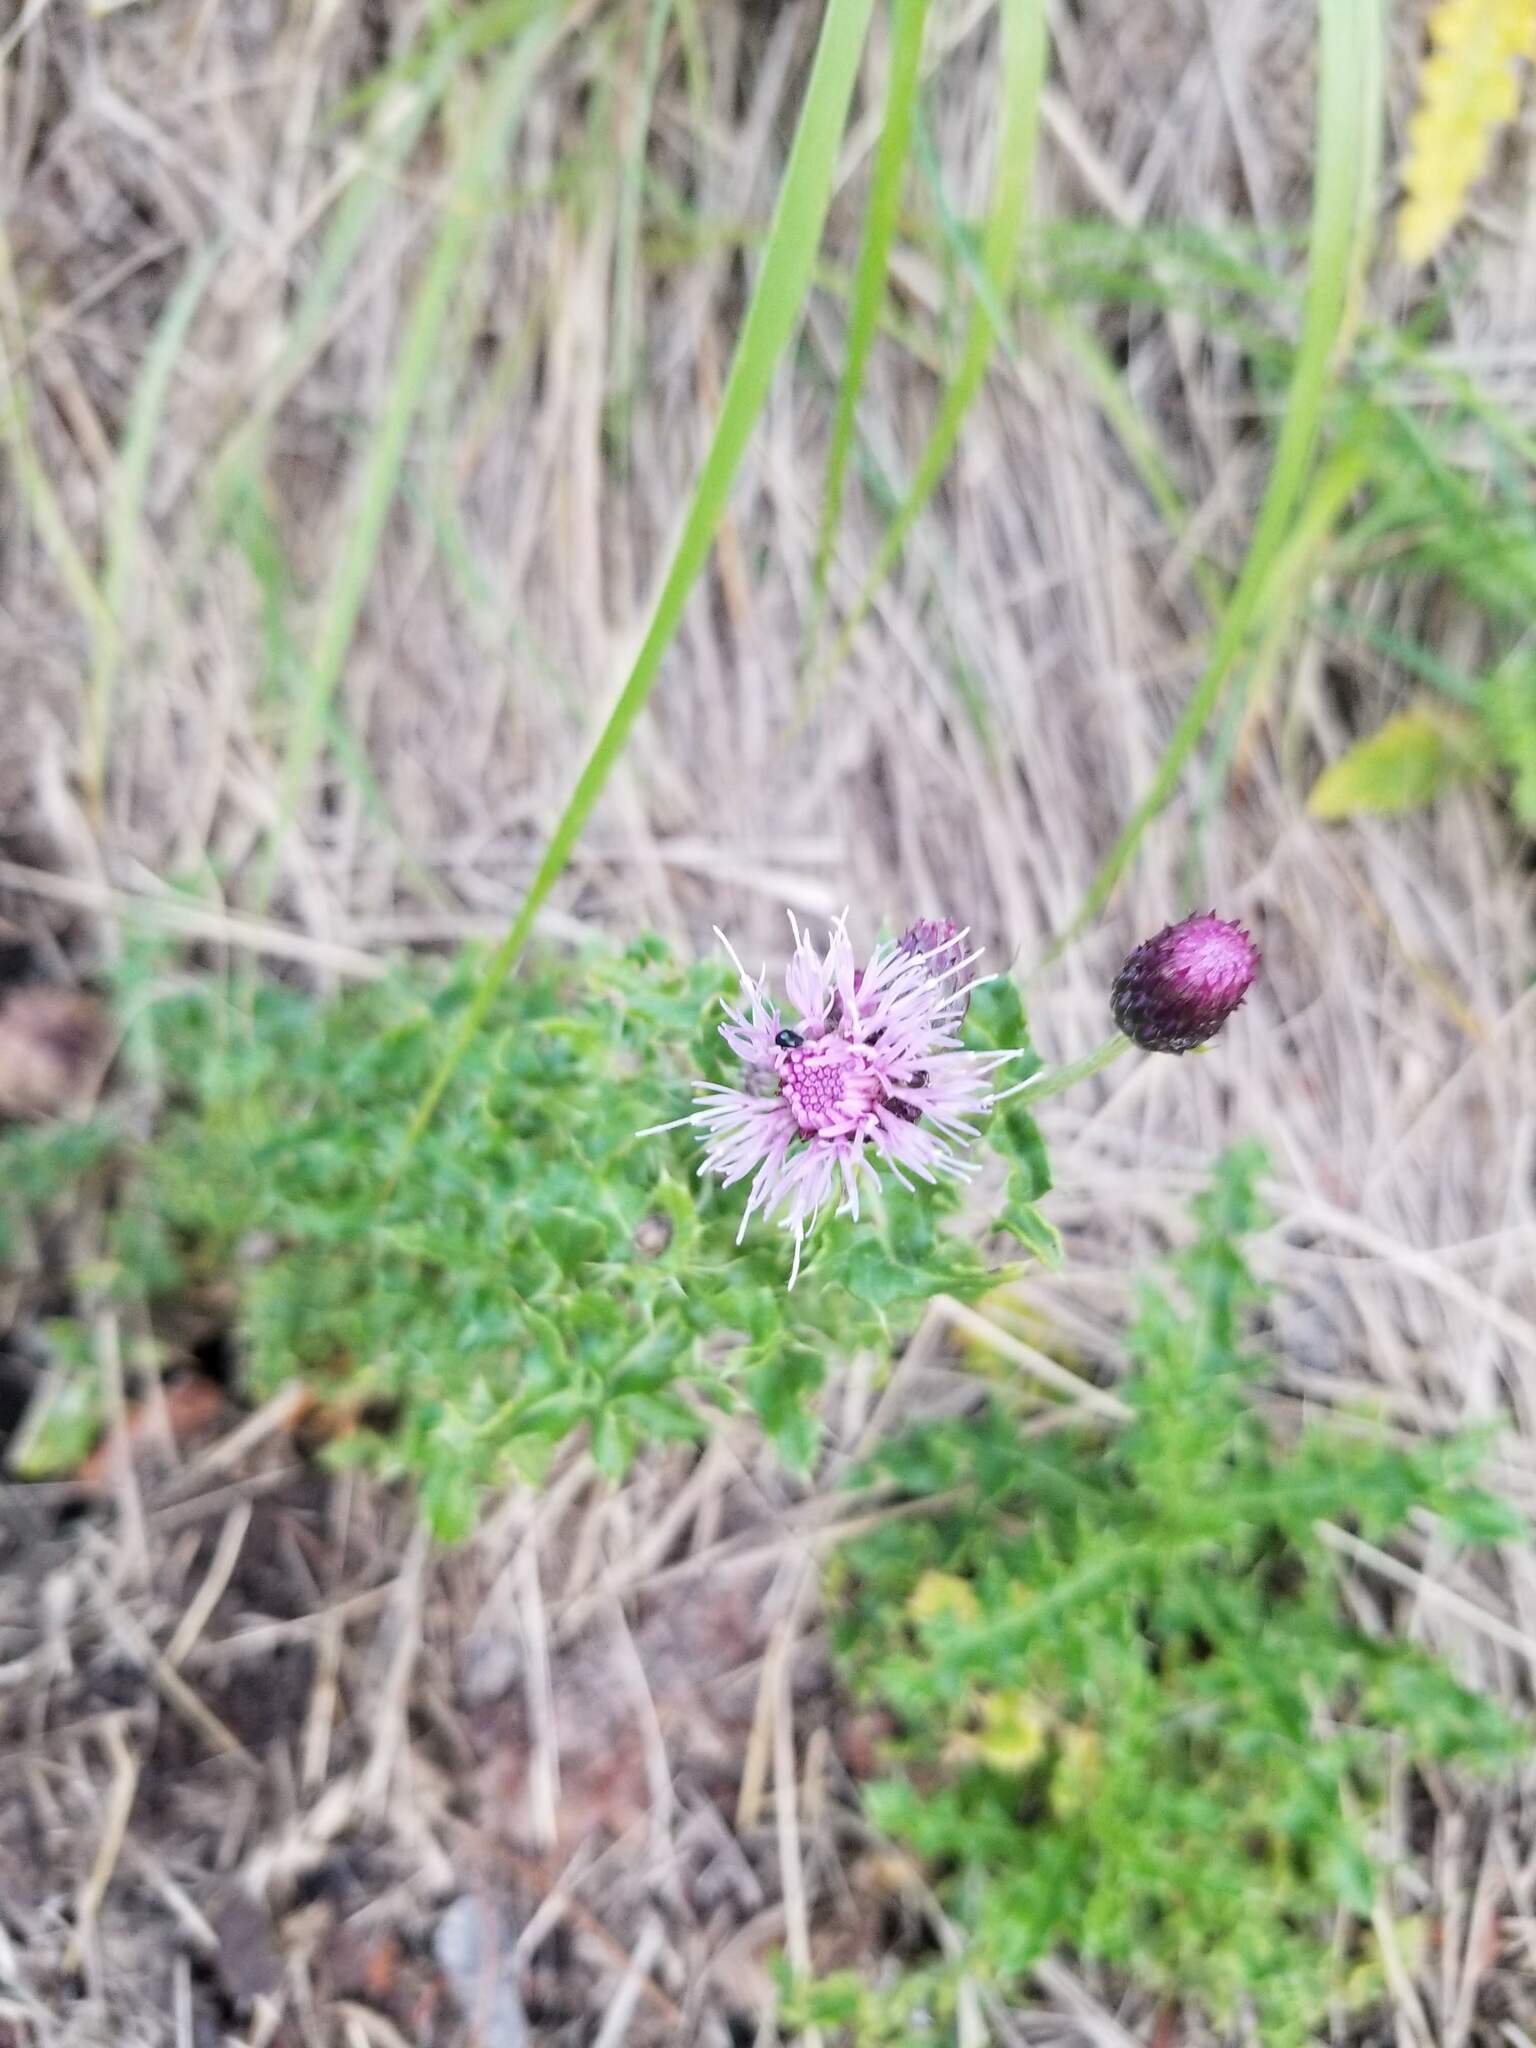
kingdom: Plantae
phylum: Tracheophyta
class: Magnoliopsida
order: Asterales
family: Asteraceae
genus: Cirsium
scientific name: Cirsium arvense
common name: Creeping thistle
